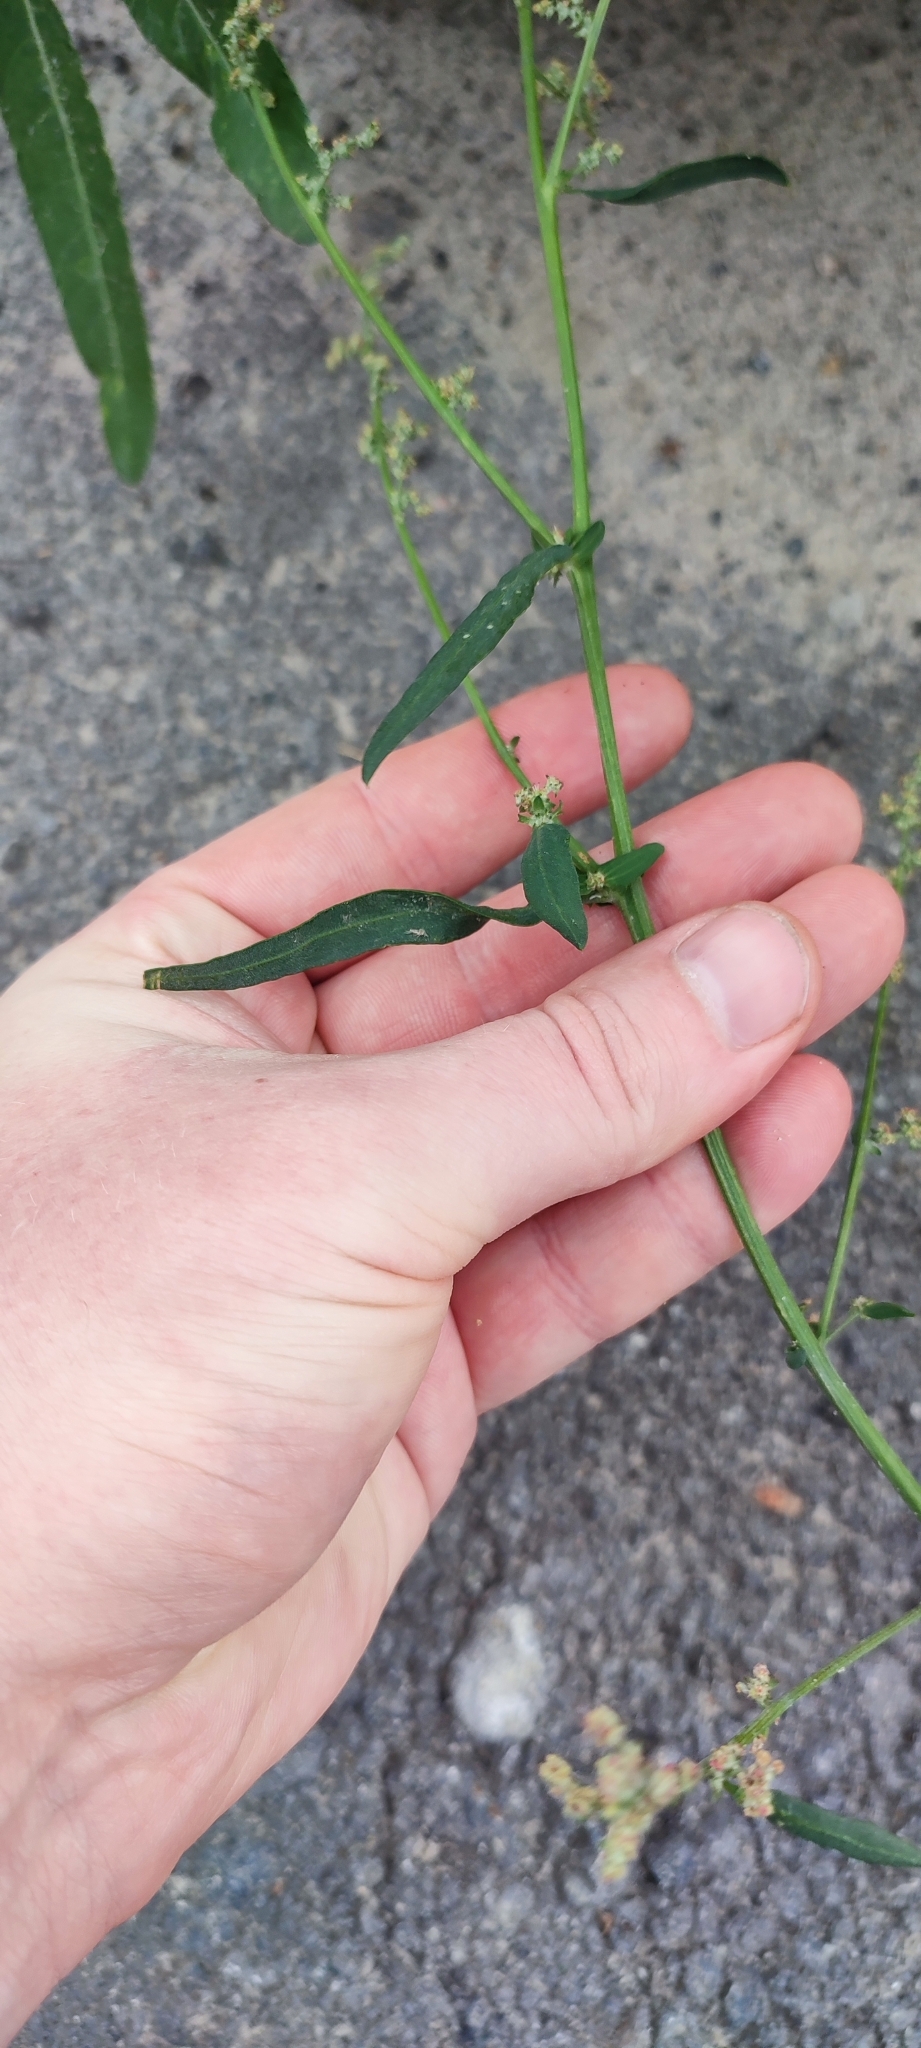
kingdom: Plantae
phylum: Tracheophyta
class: Magnoliopsida
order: Caryophyllales
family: Amaranthaceae
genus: Atriplex
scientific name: Atriplex patula
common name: Common orache
